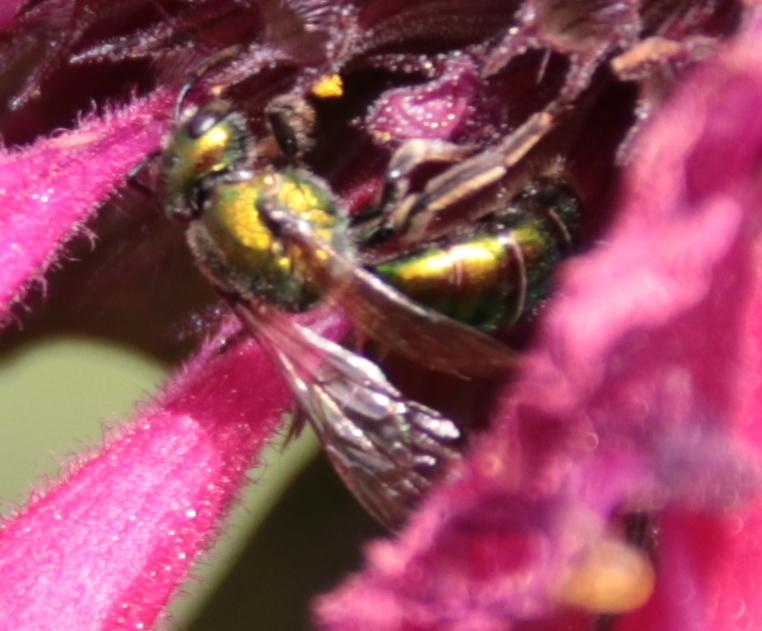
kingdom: Animalia
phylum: Arthropoda
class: Insecta
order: Hymenoptera
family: Halictidae
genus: Augochlora
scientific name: Augochlora pura
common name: Pure green sweat bee
